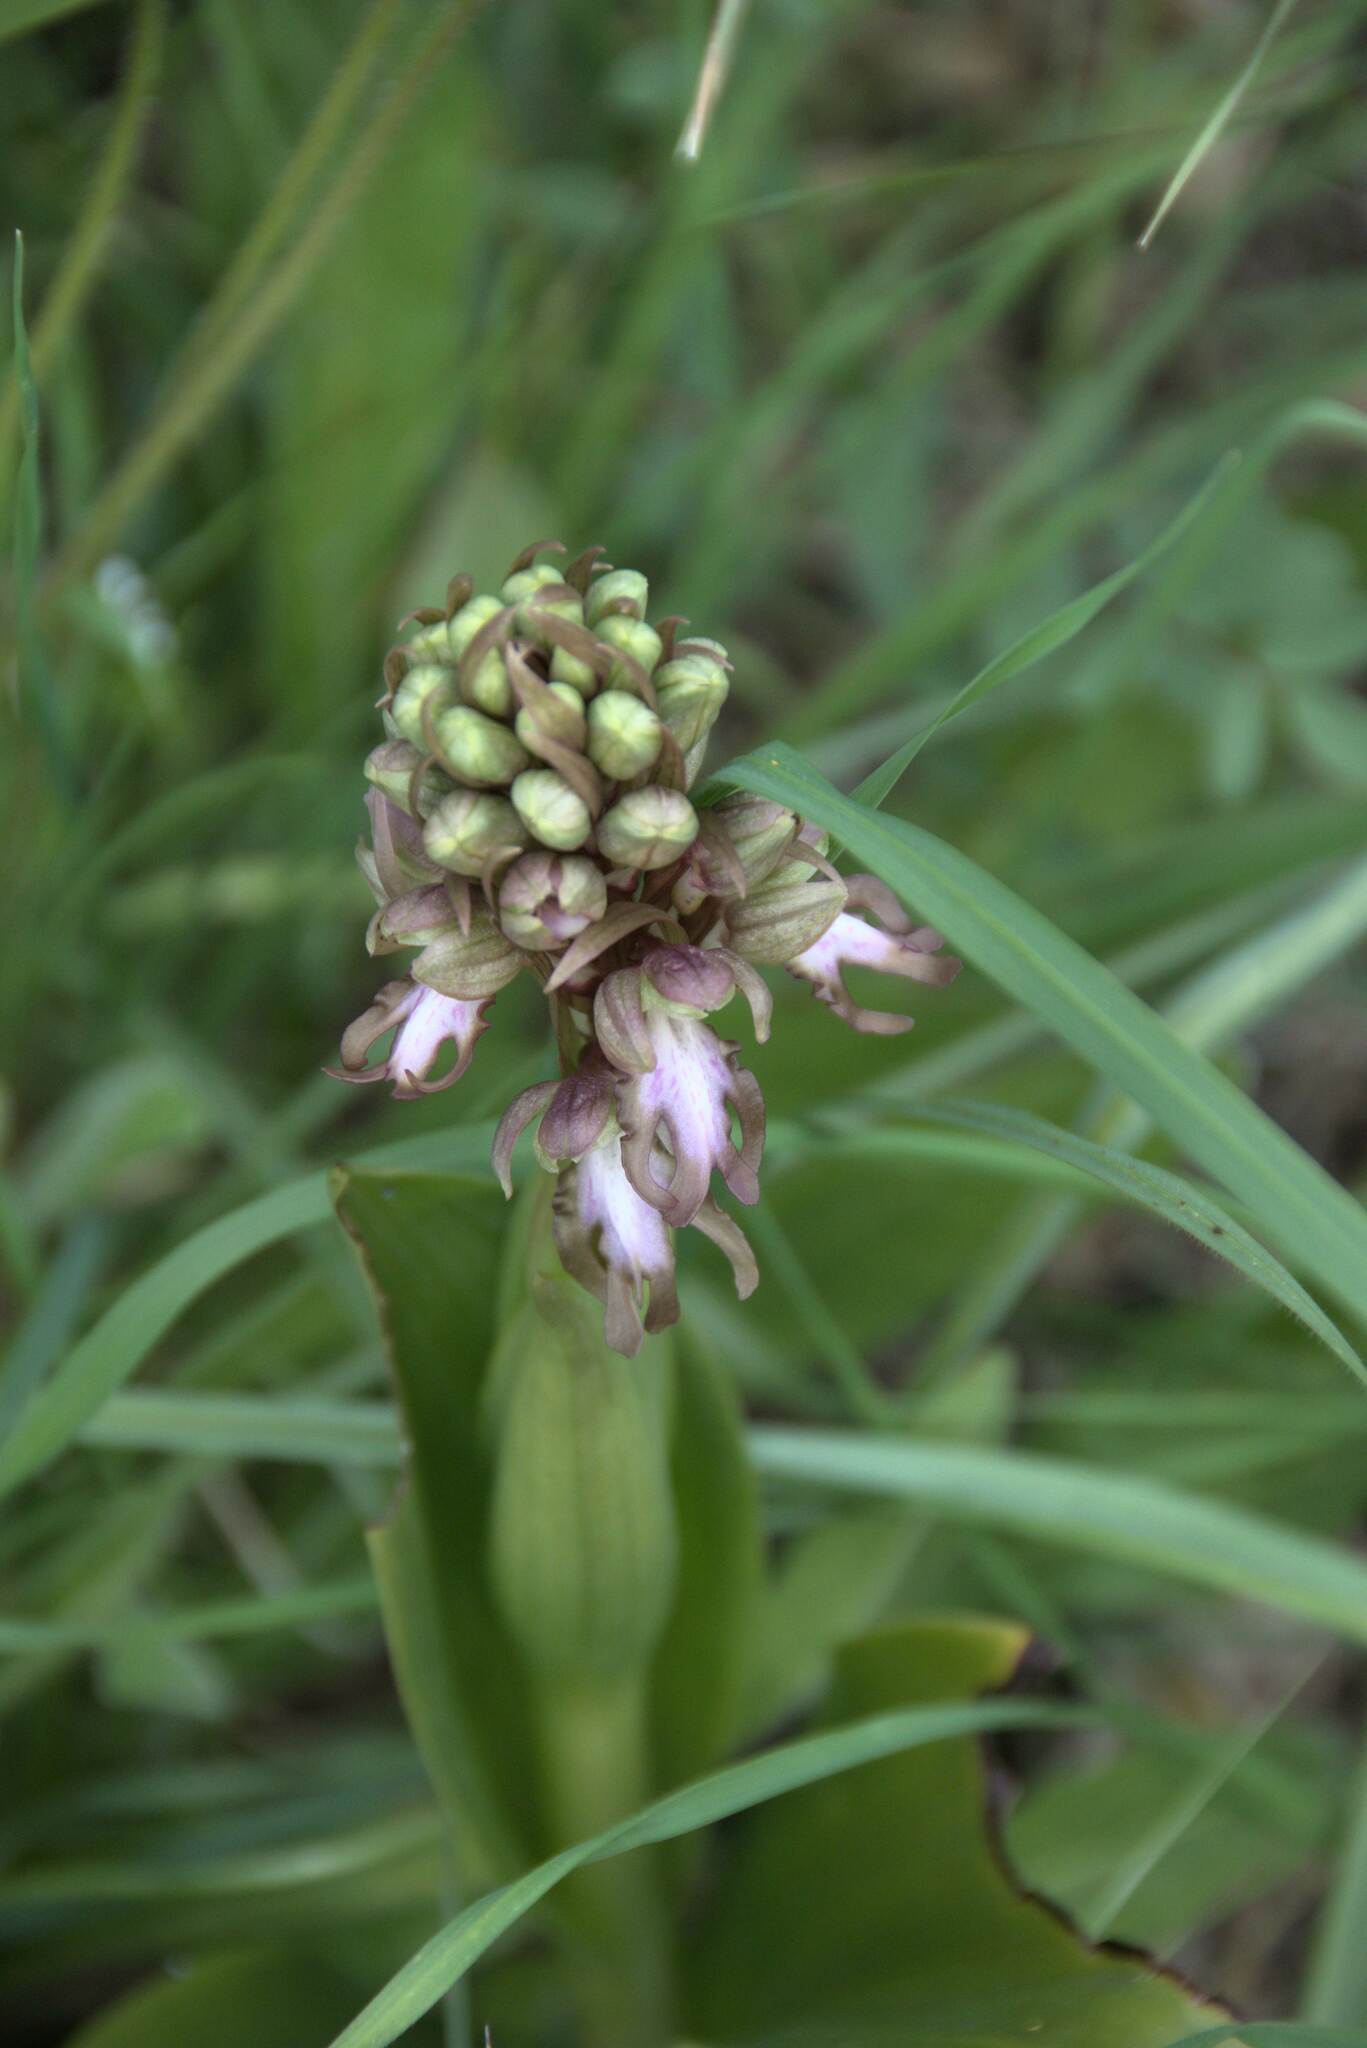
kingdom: Plantae
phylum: Tracheophyta
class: Liliopsida
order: Asparagales
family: Orchidaceae
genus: Himantoglossum
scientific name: Himantoglossum robertianum
